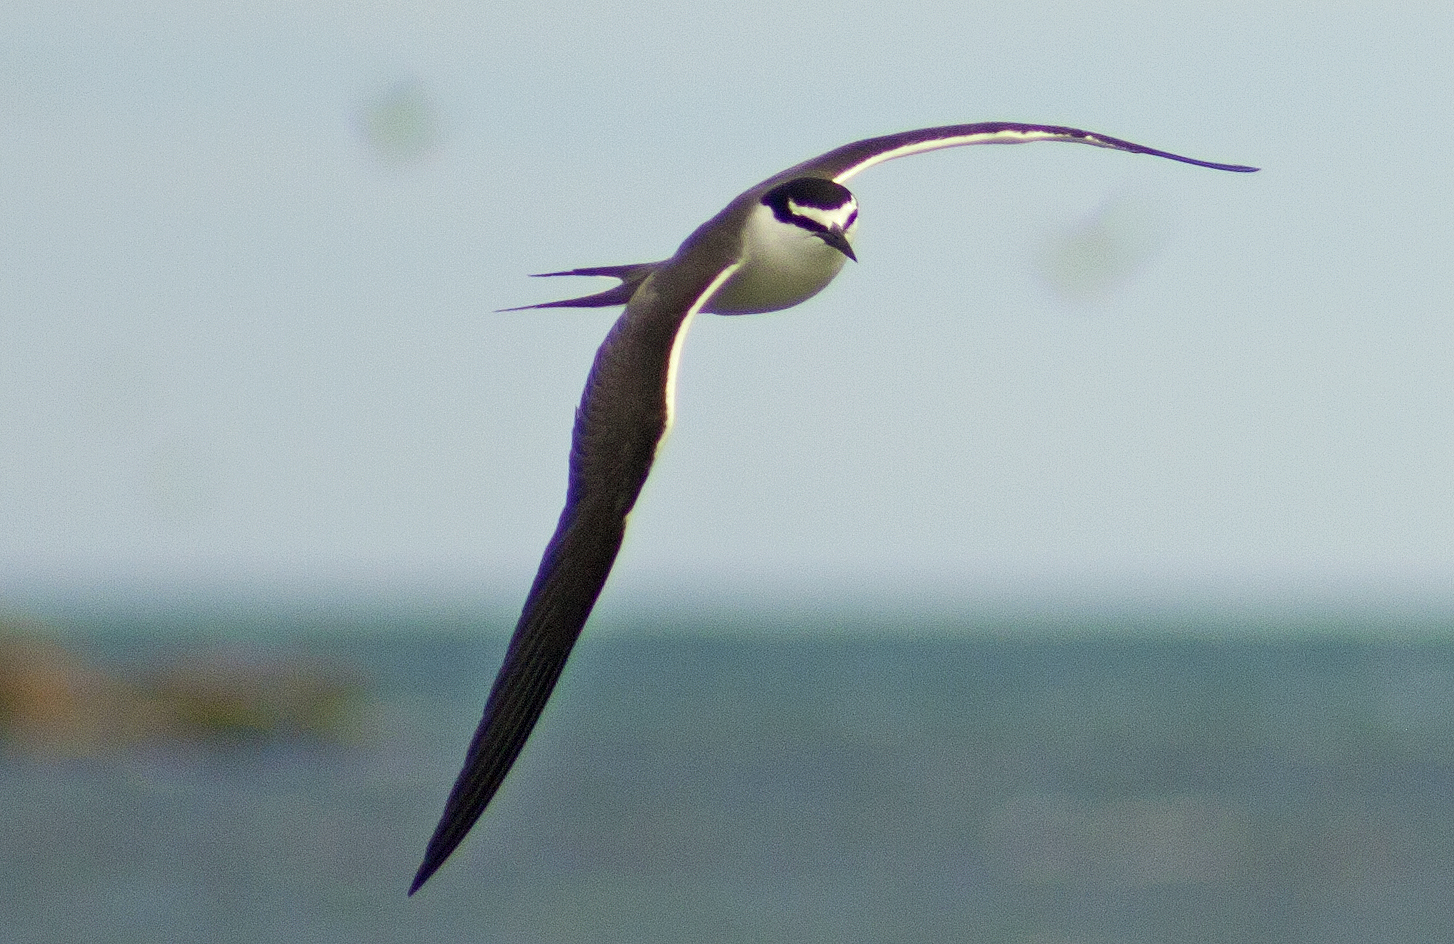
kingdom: Animalia
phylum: Chordata
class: Aves
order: Charadriiformes
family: Laridae
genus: Onychoprion
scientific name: Onychoprion anaethetus
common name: Bridled tern
